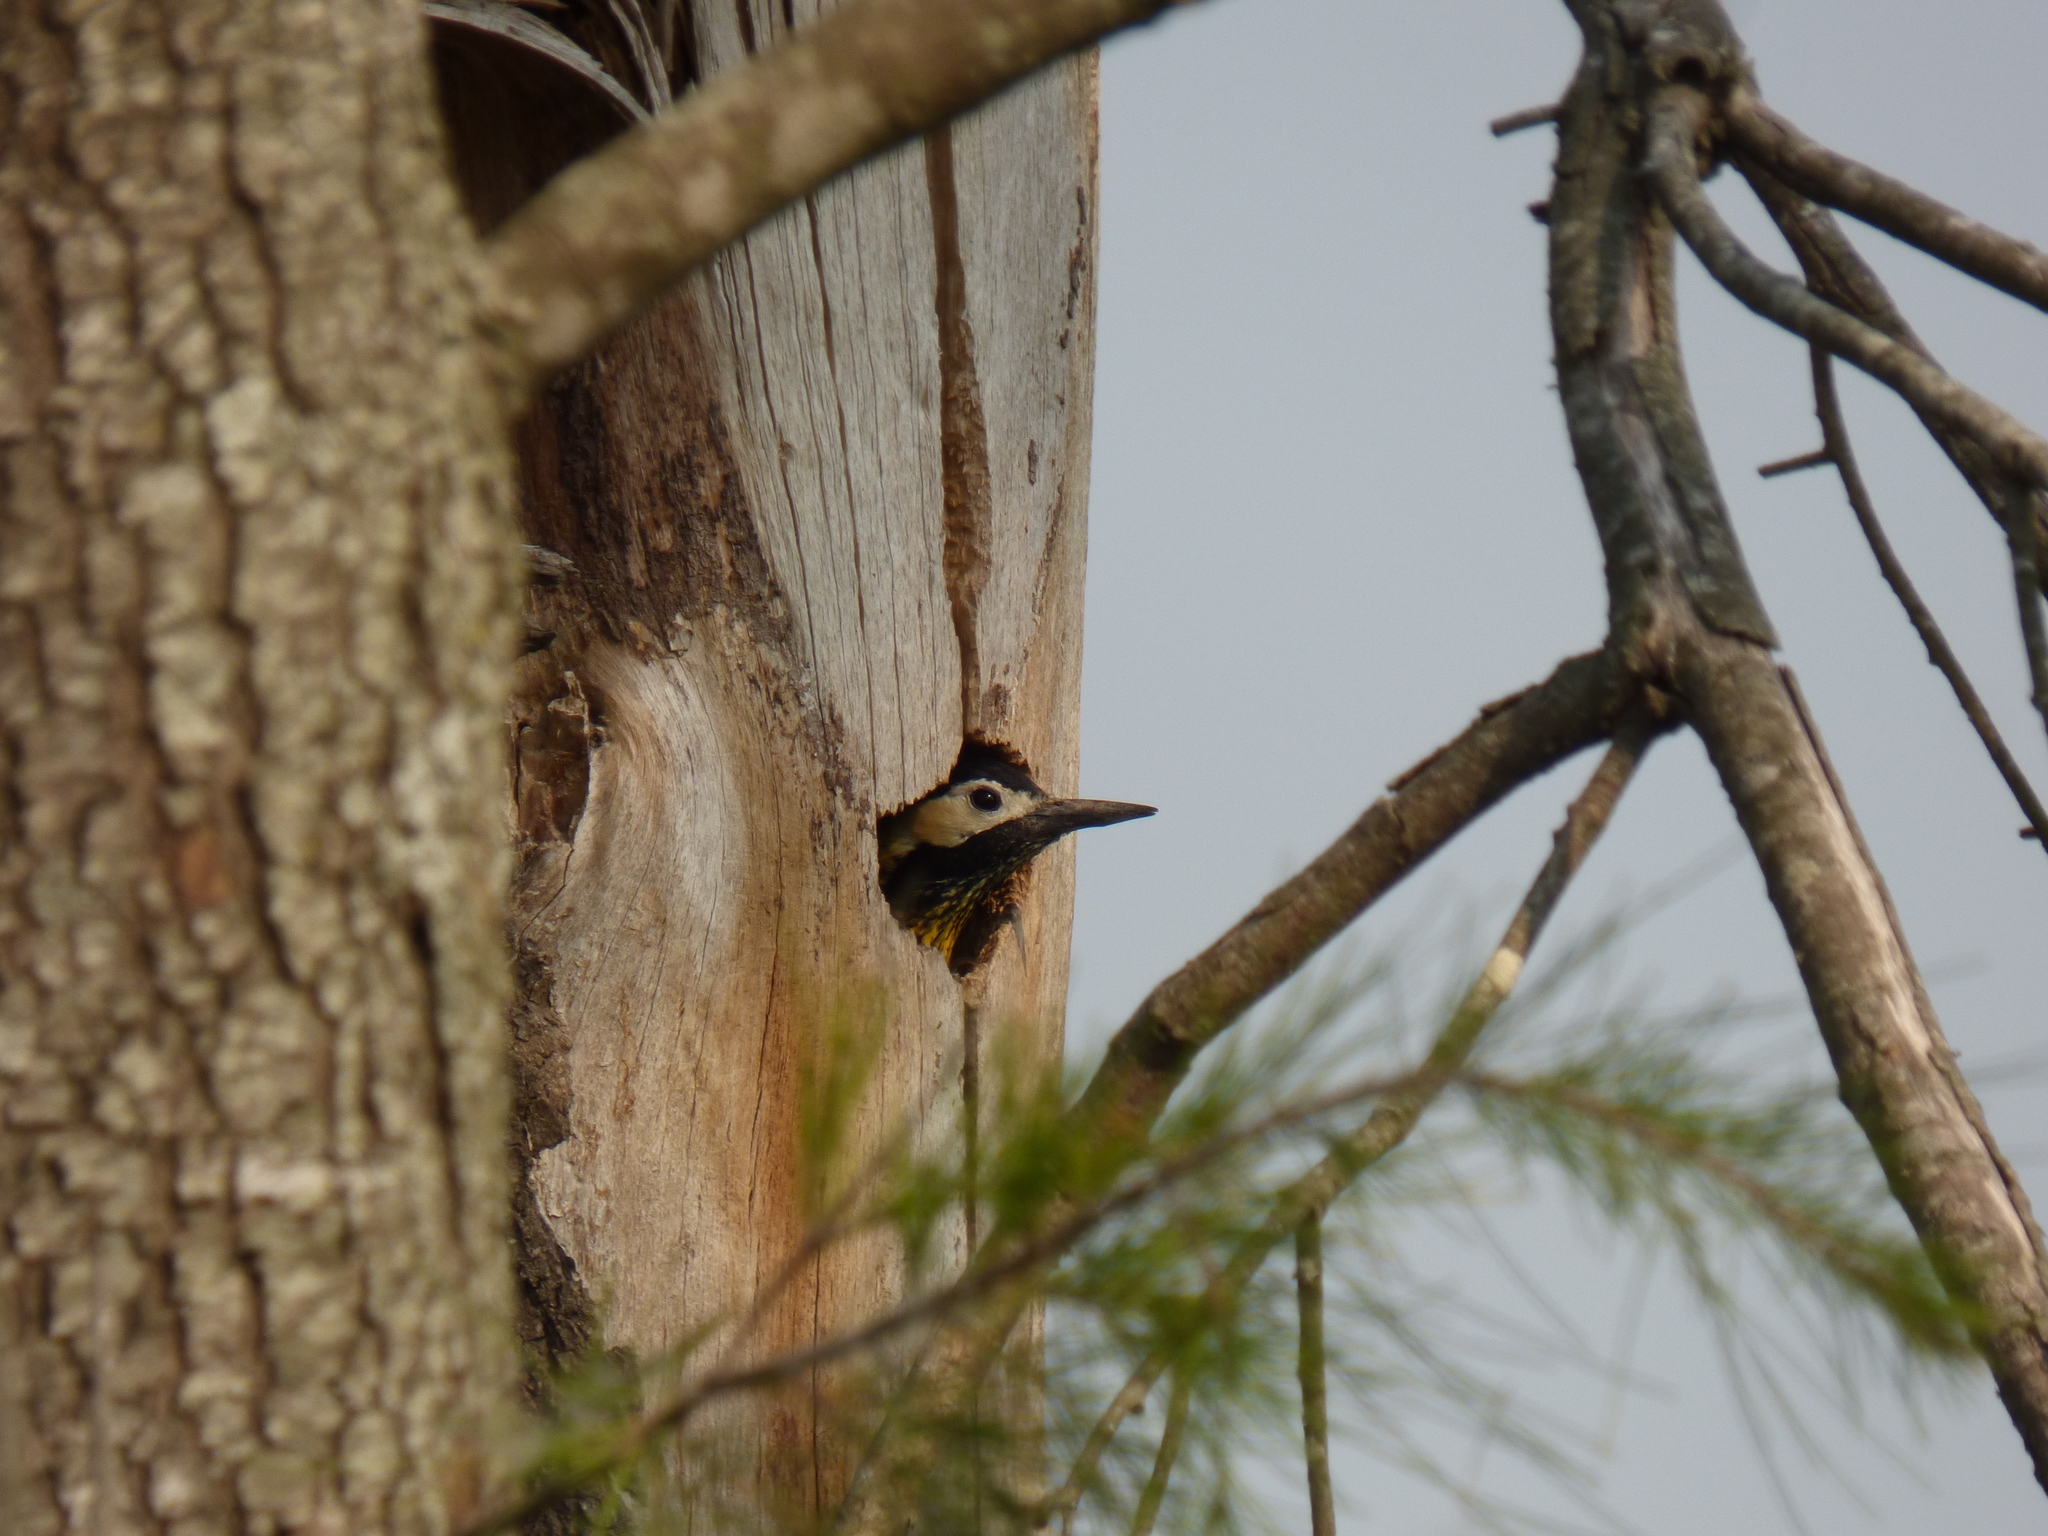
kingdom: Animalia
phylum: Chordata
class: Aves
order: Piciformes
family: Picidae
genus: Colaptes
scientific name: Colaptes melanochloros
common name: Green-barred woodpecker
